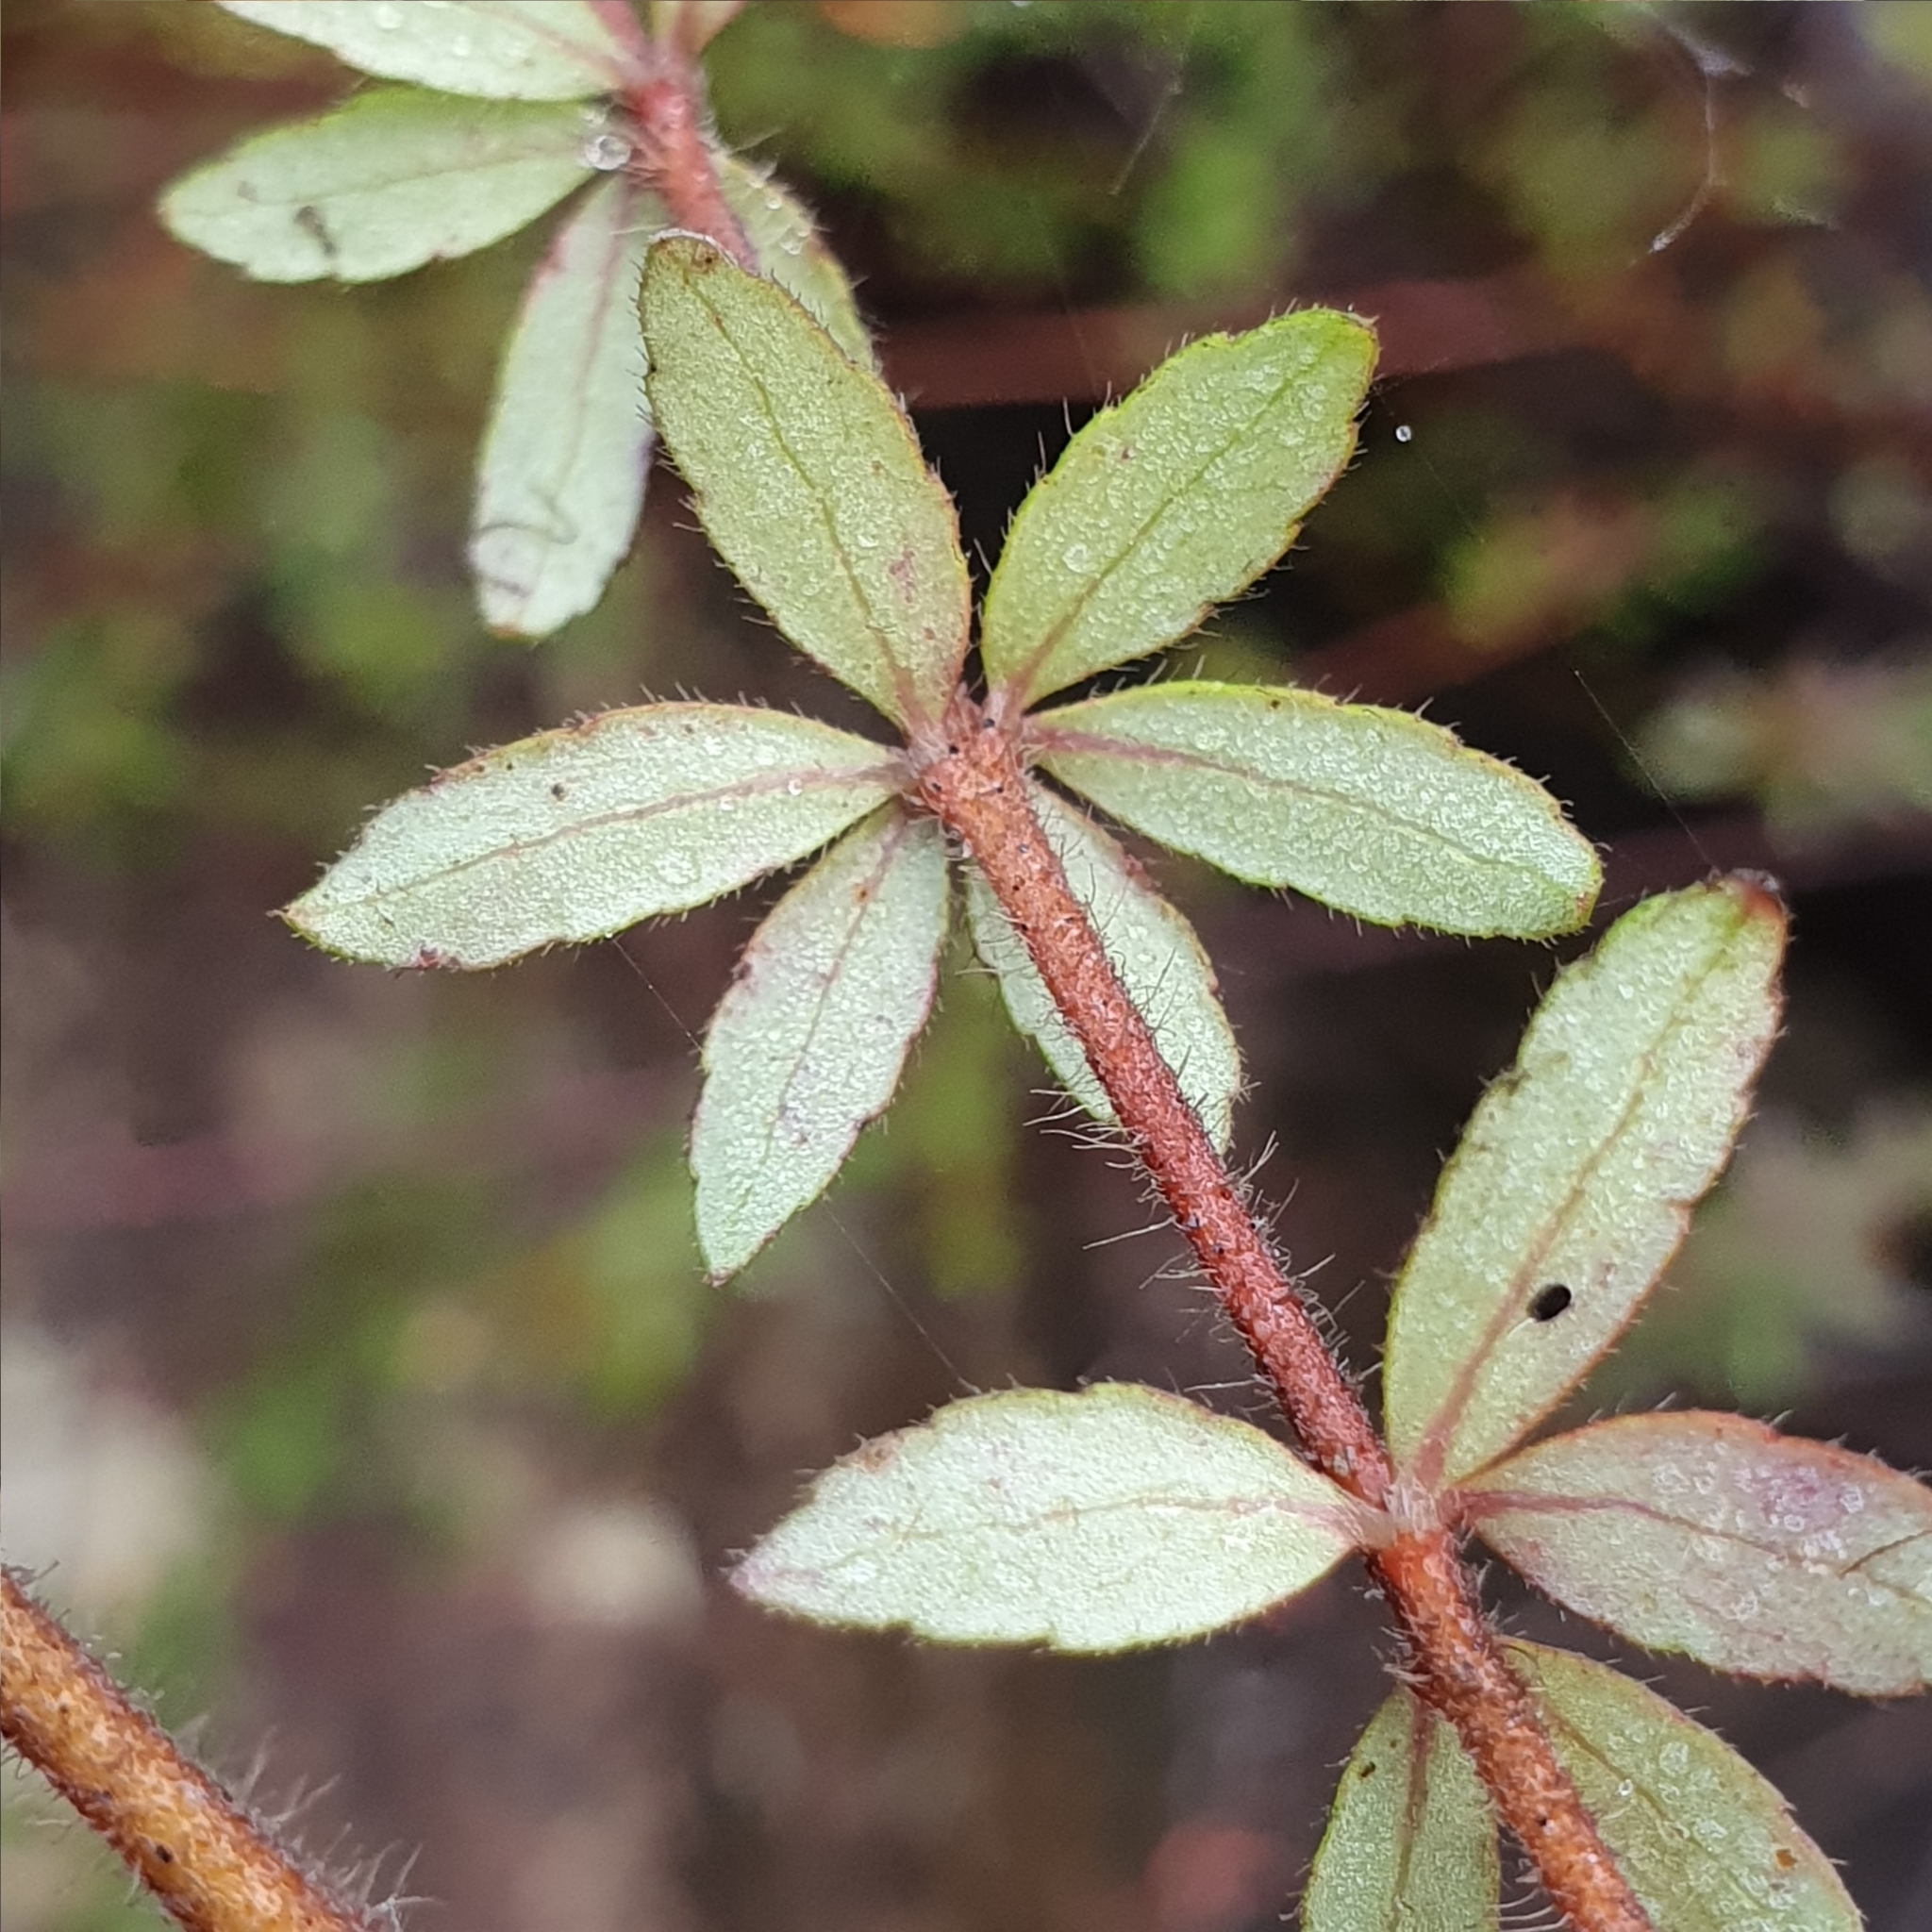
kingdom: Plantae
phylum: Tracheophyta
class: Magnoliopsida
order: Oxalidales
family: Cunoniaceae
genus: Bauera
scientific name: Bauera rubioides
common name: River-rose
